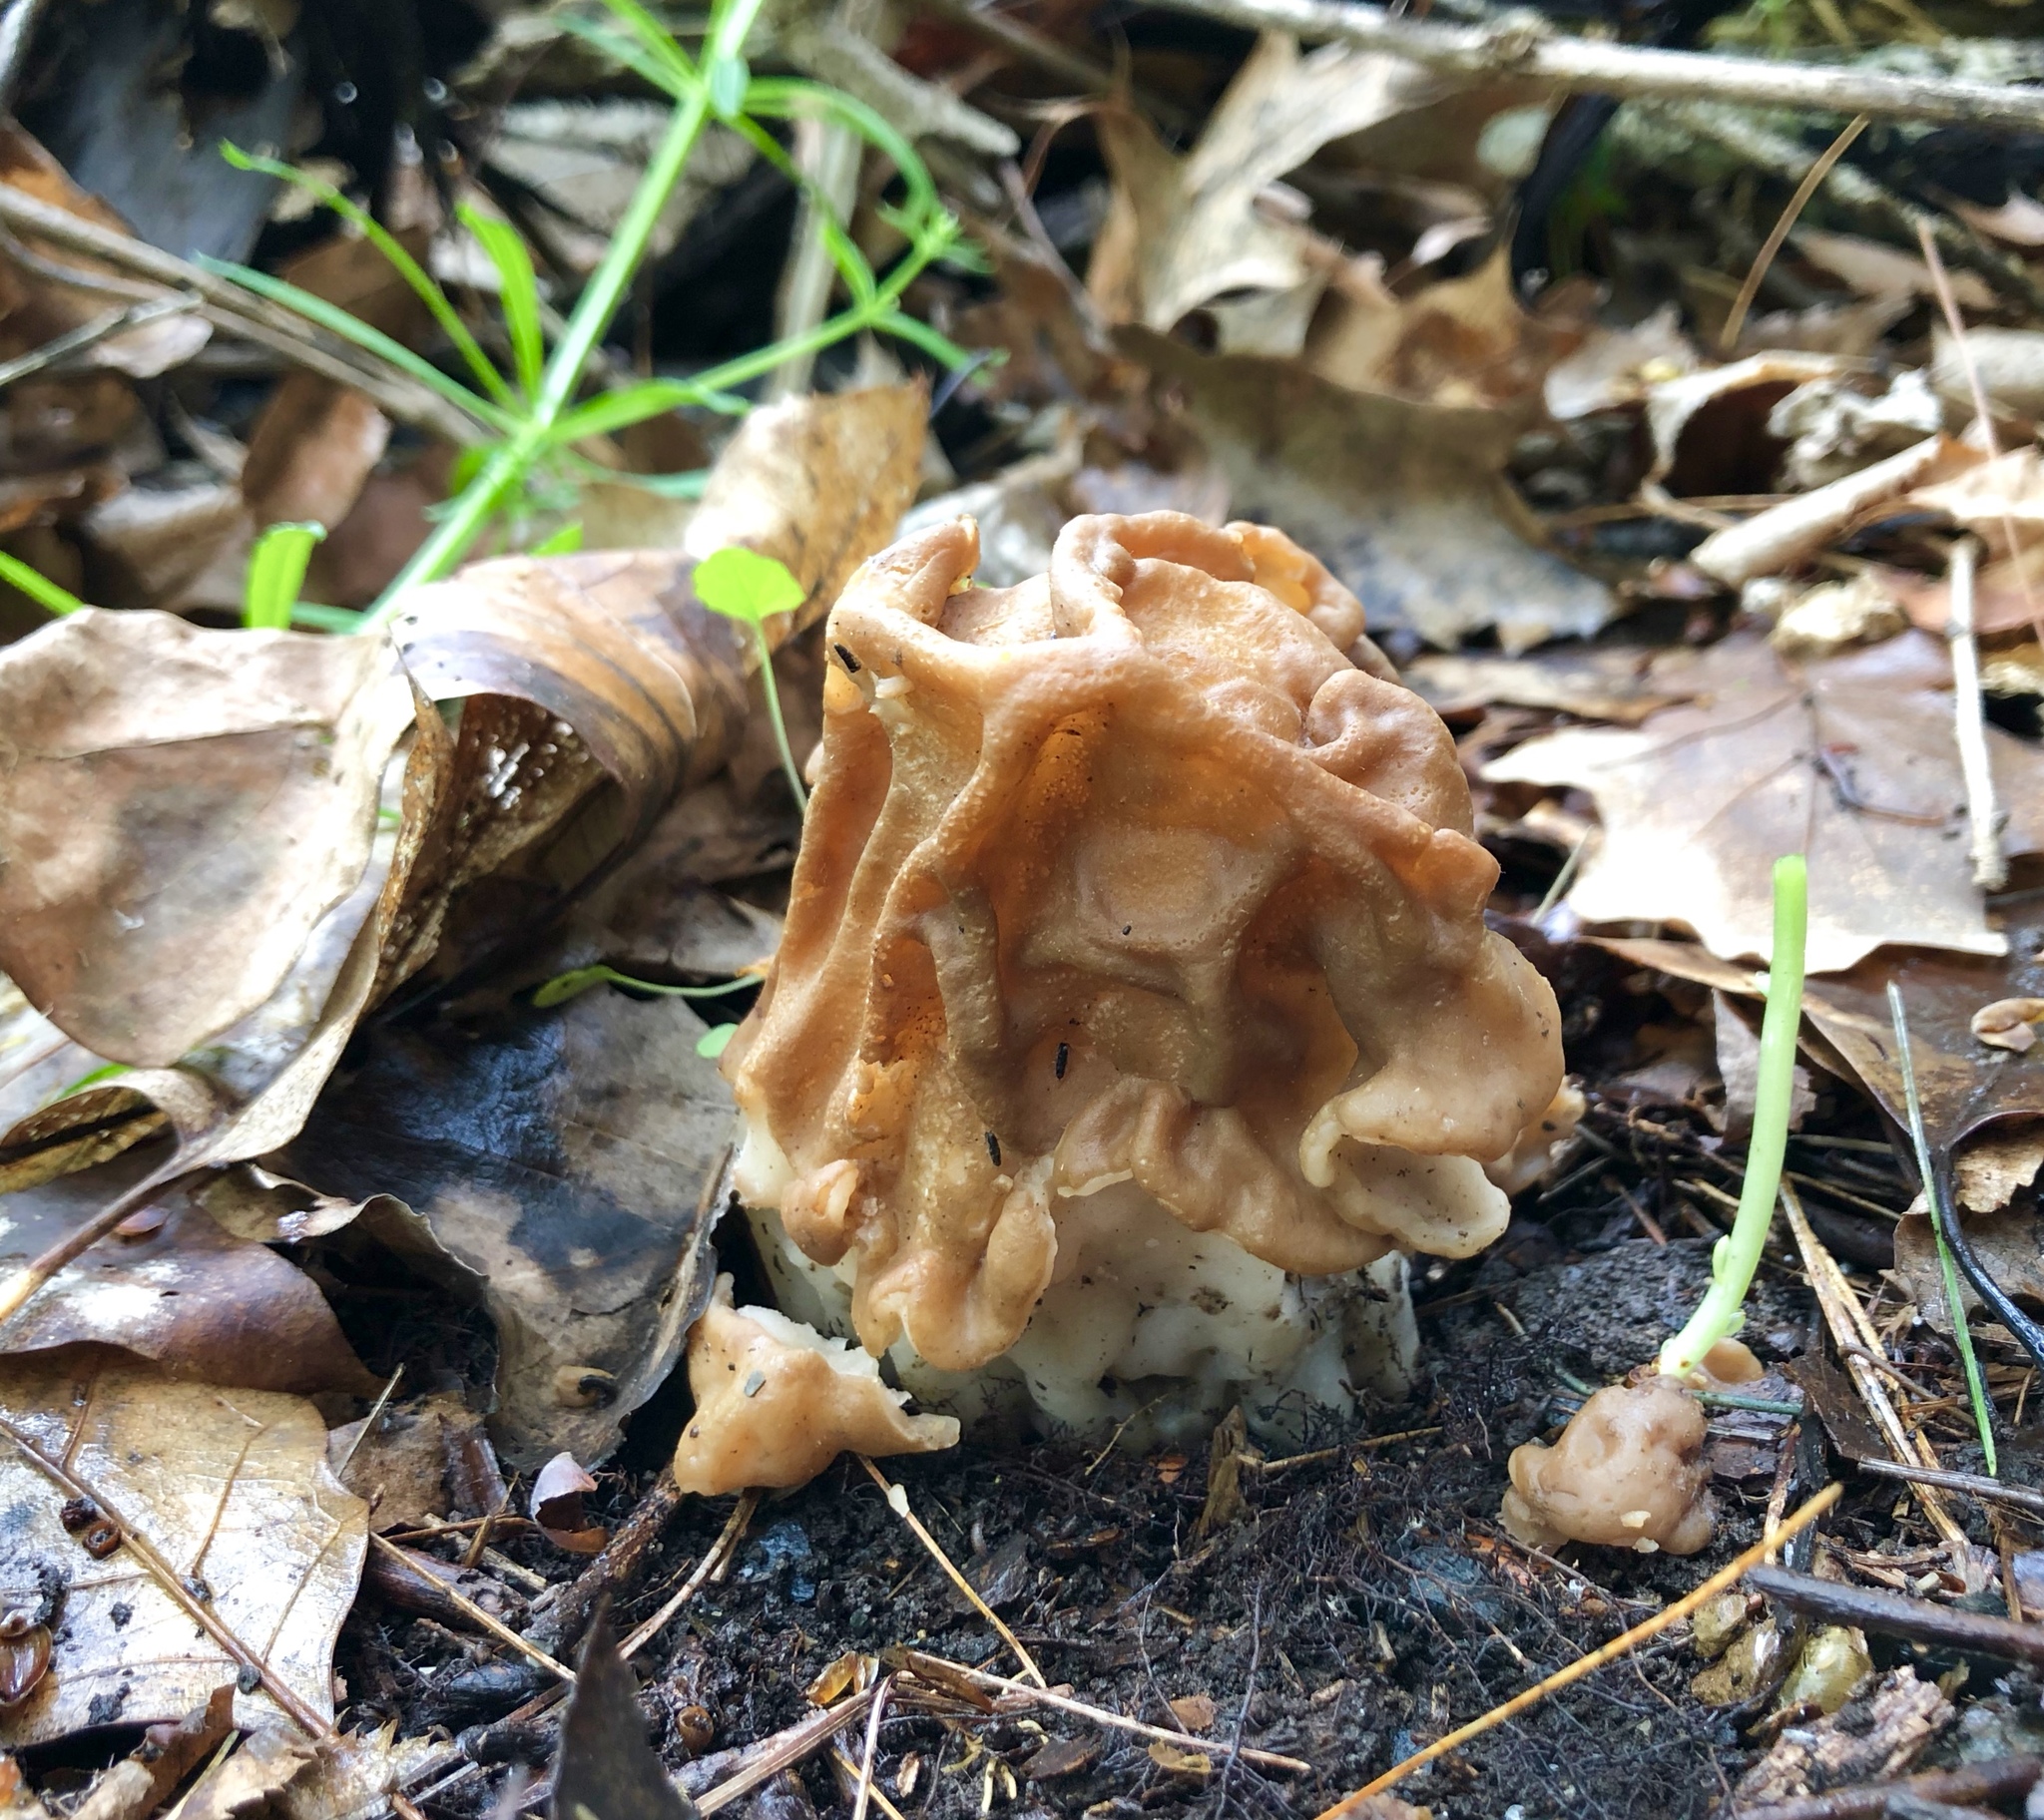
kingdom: Fungi
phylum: Ascomycota
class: Pezizomycetes
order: Pezizales
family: Discinaceae
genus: Gyromitra
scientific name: Gyromitra korfii
